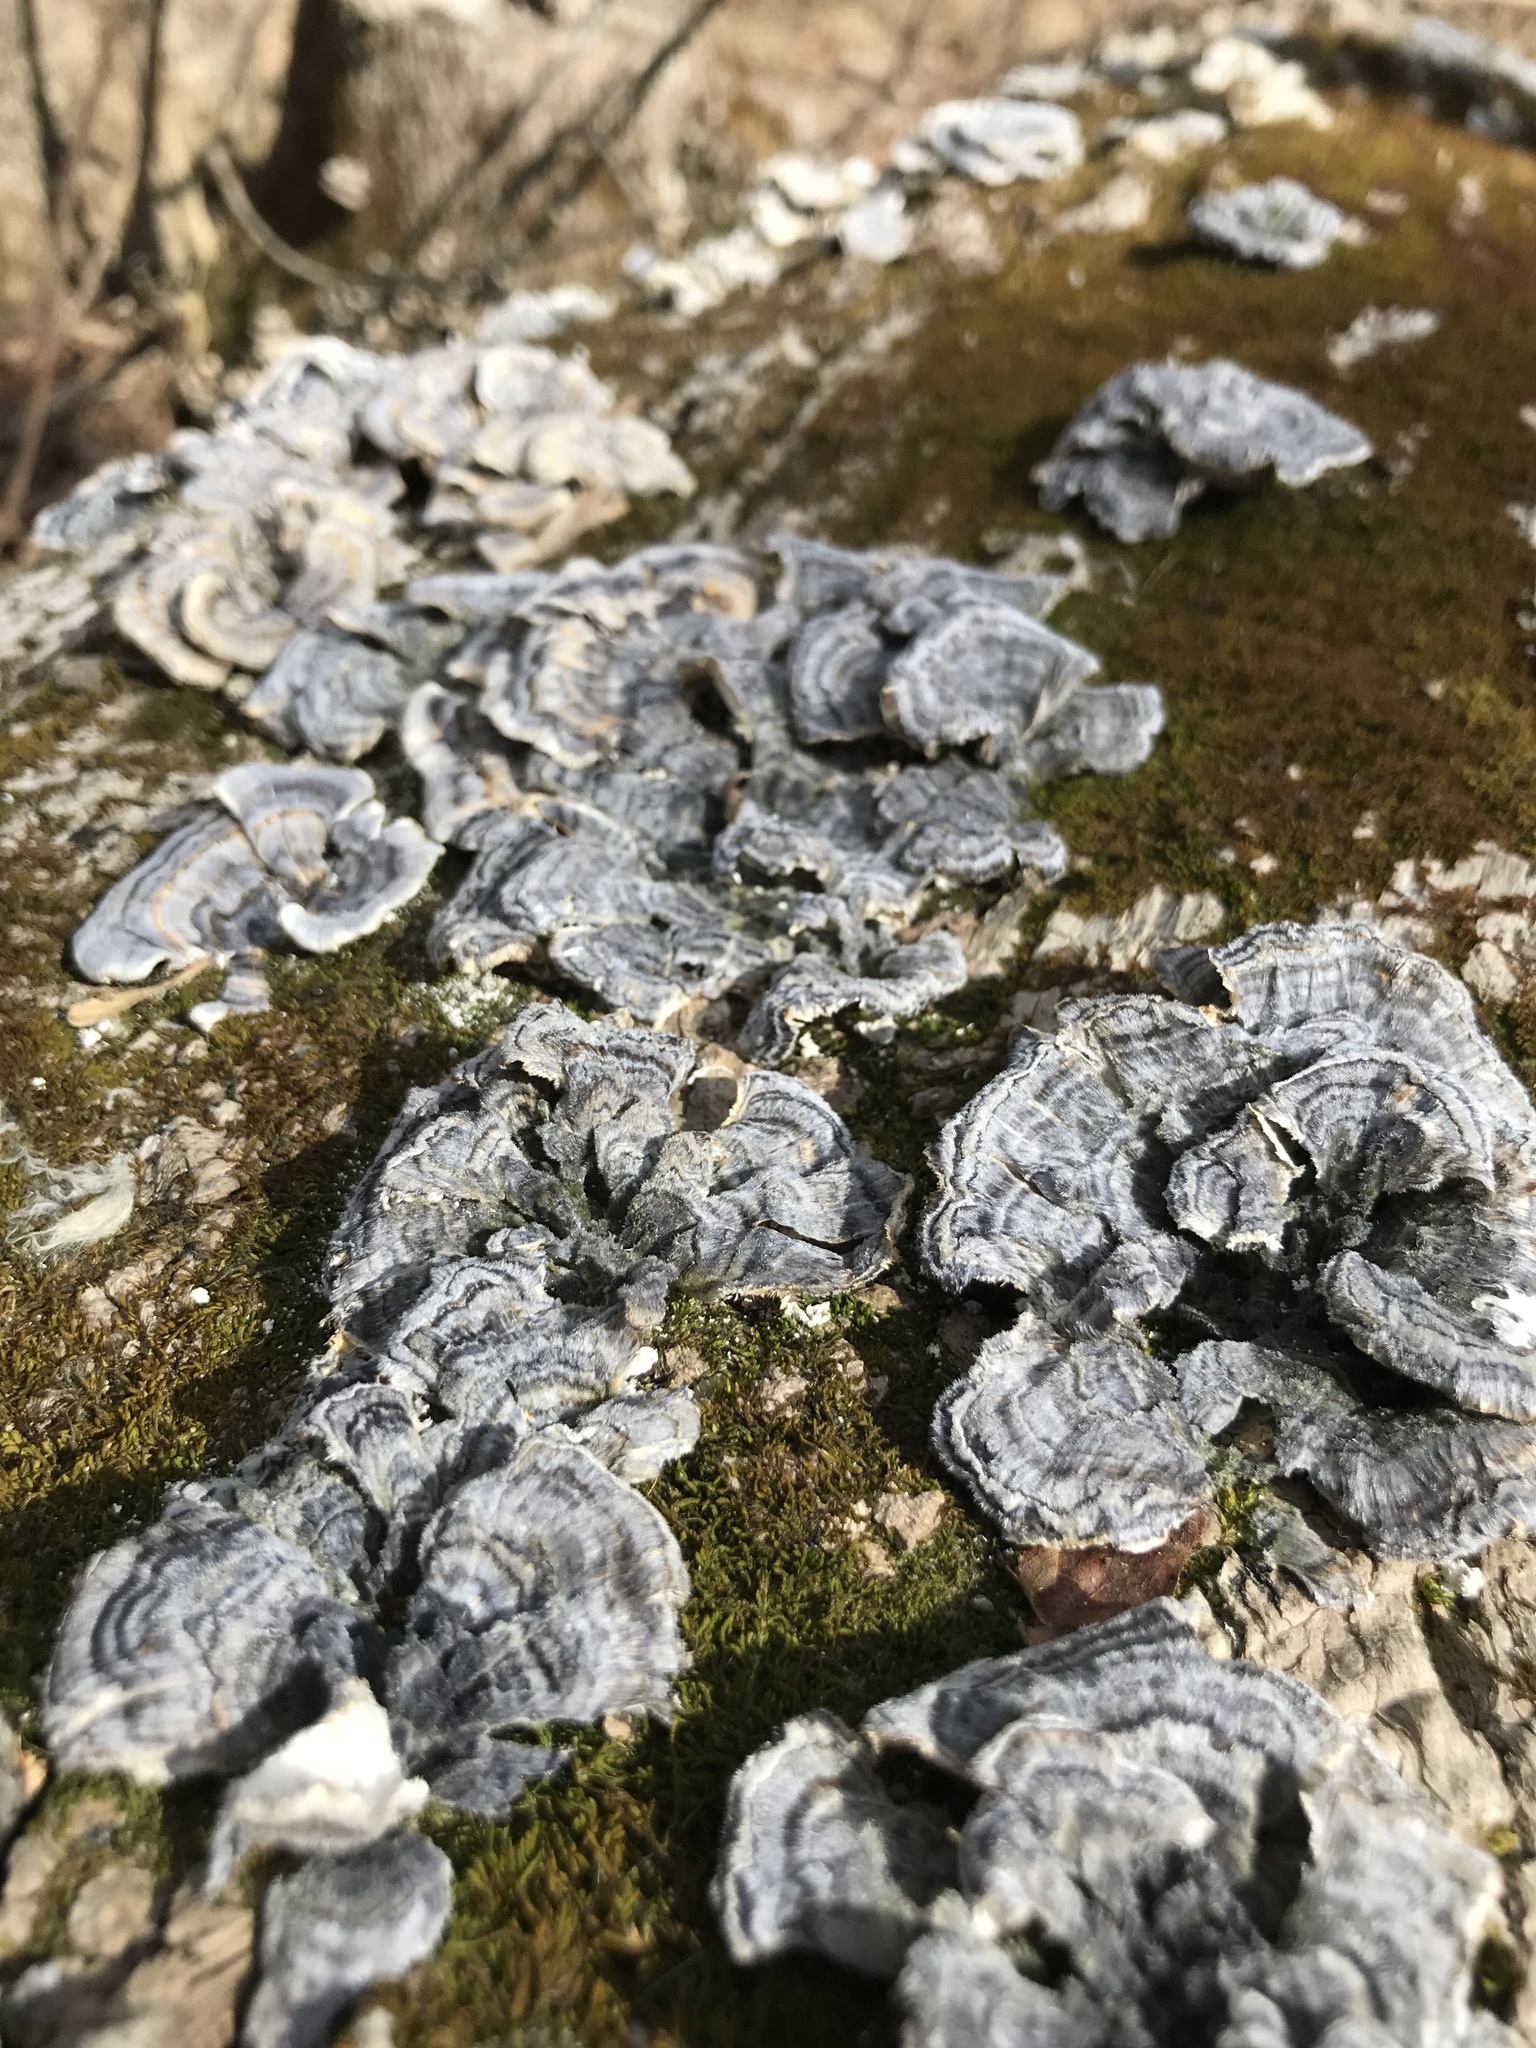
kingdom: Fungi
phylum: Basidiomycota
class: Agaricomycetes
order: Polyporales
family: Polyporaceae
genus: Trametes
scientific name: Trametes versicolor
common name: Turkeytail
